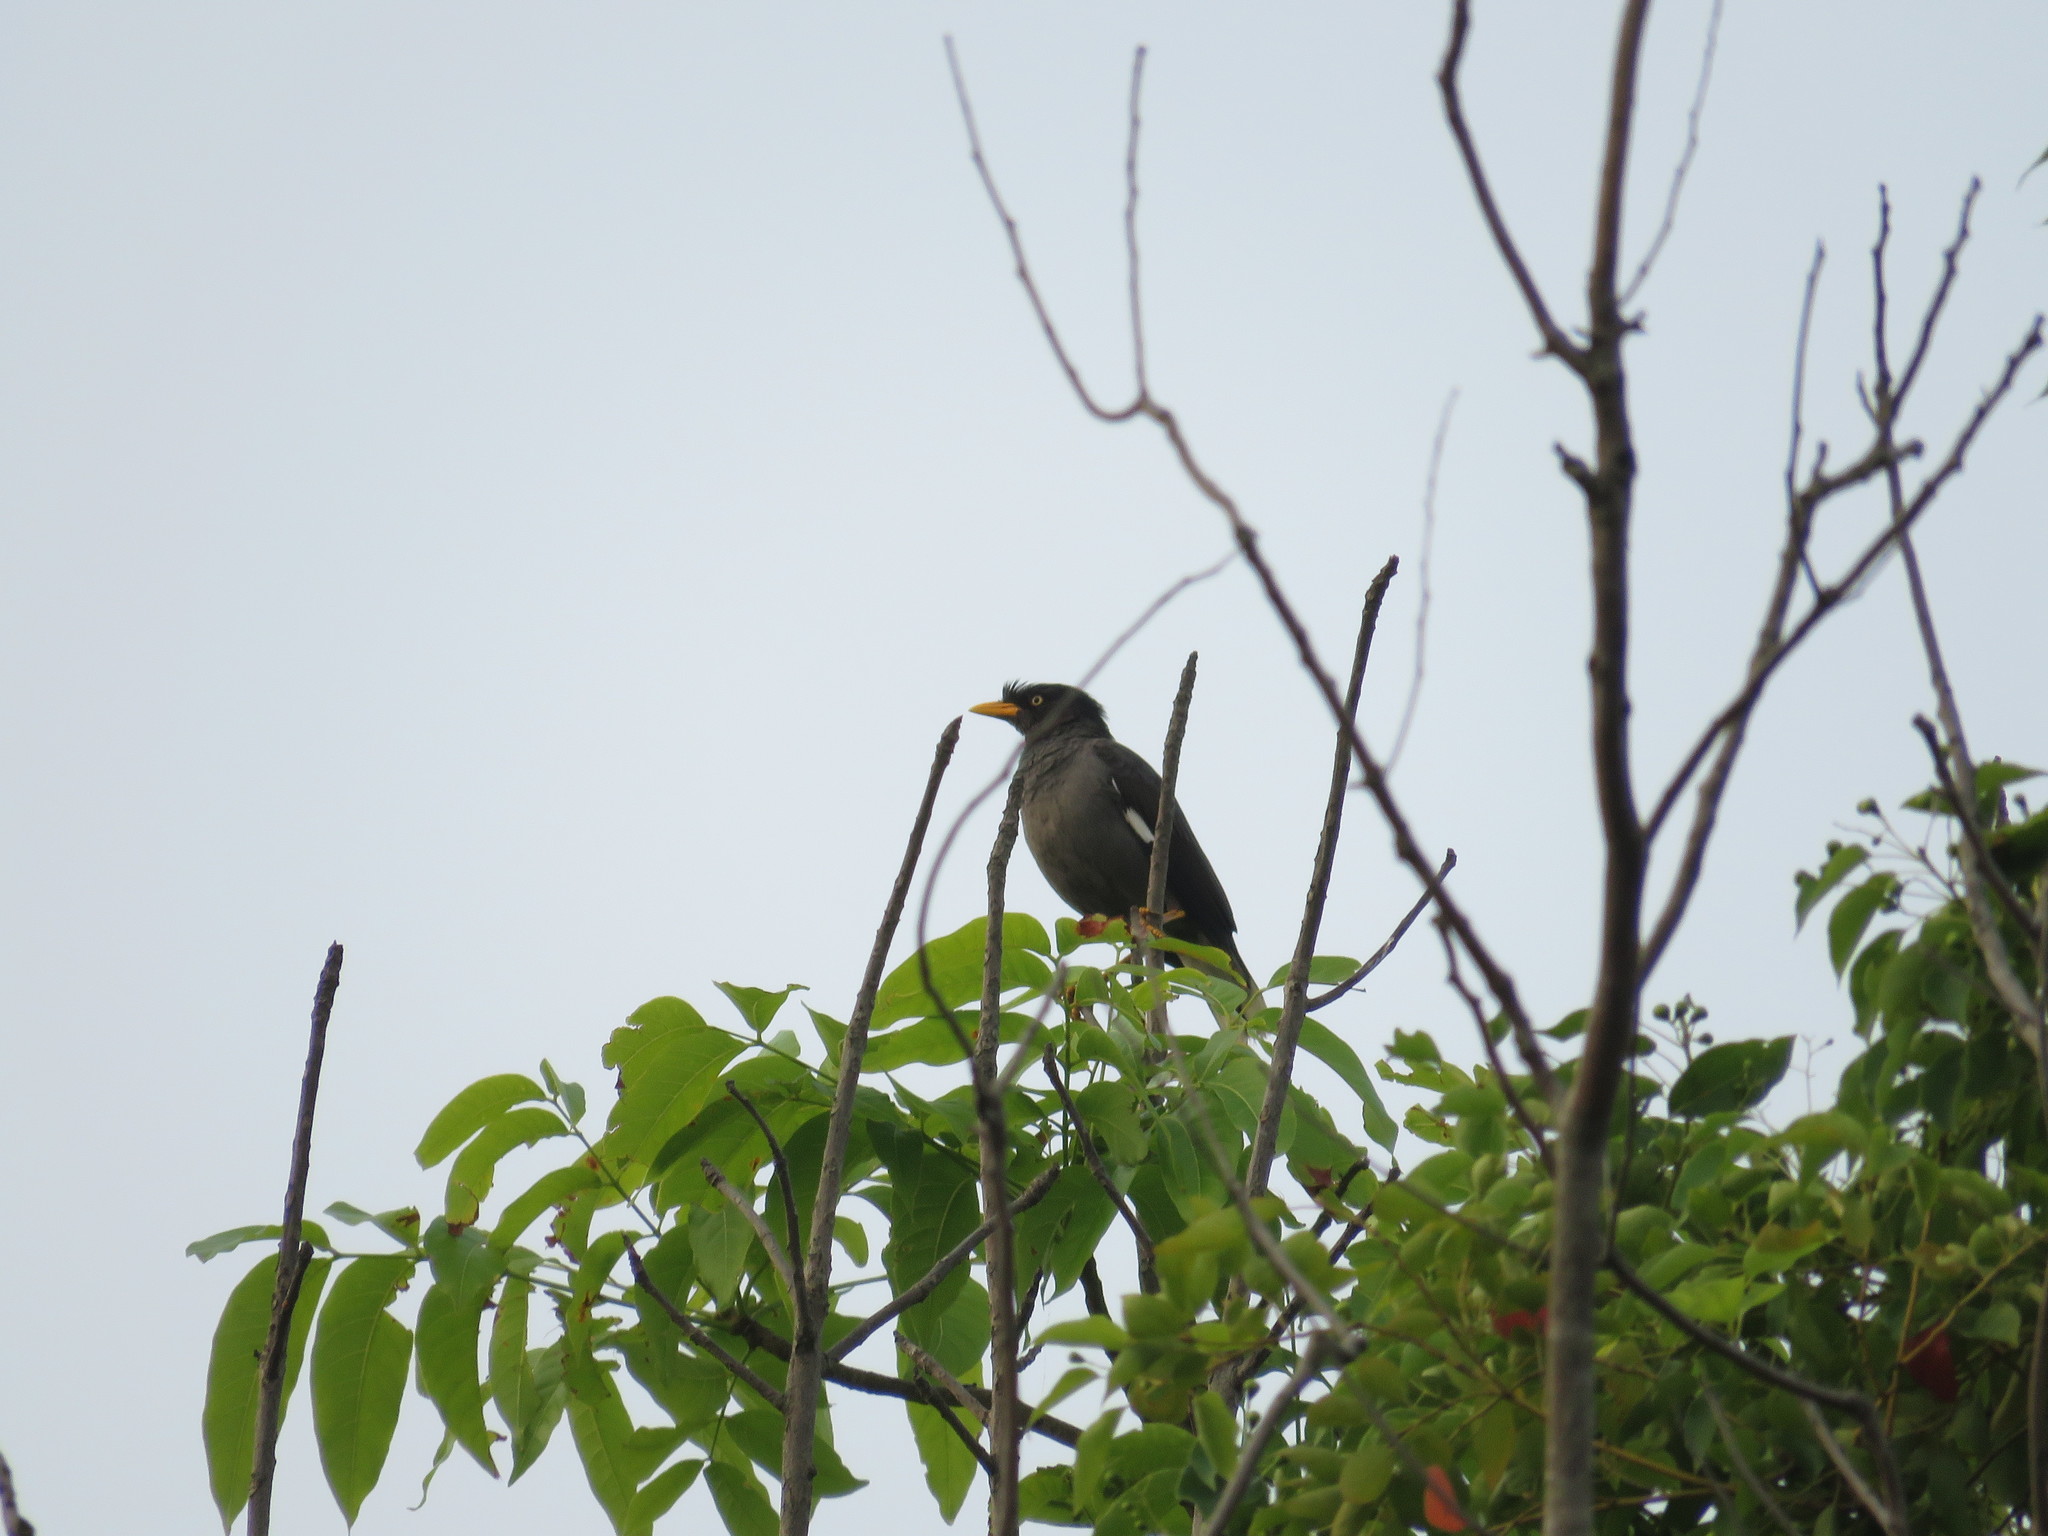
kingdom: Animalia
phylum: Chordata
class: Aves
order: Passeriformes
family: Sturnidae
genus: Acridotheres
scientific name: Acridotheres javanicus
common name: Javan myna
